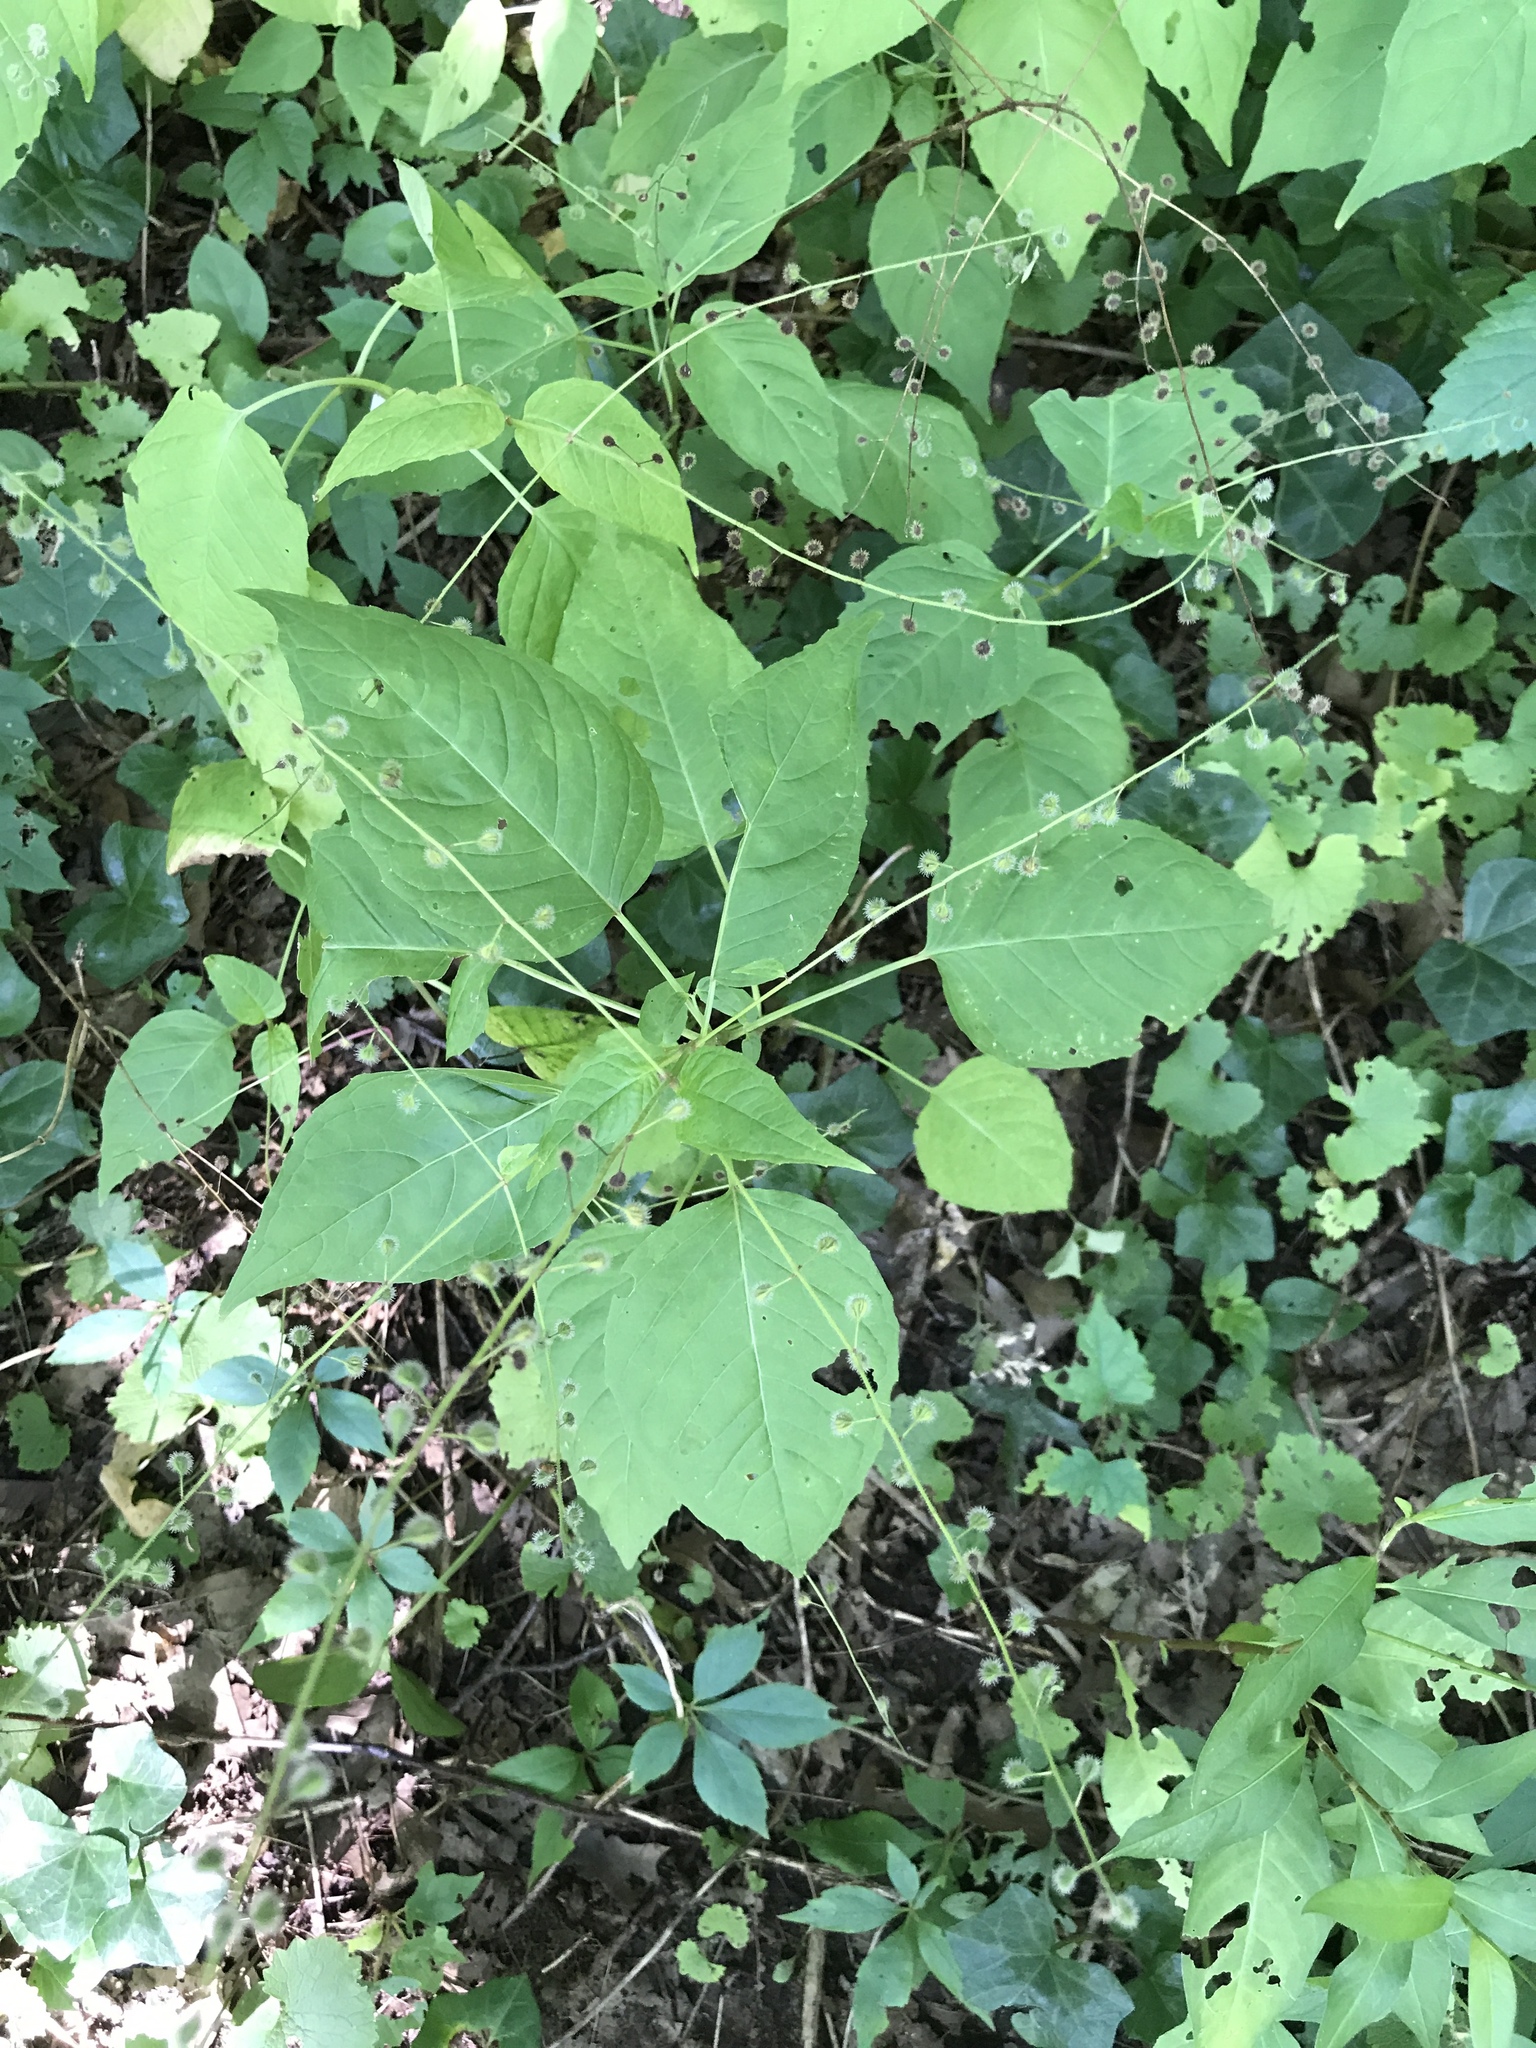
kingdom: Plantae
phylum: Tracheophyta
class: Magnoliopsida
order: Myrtales
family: Onagraceae
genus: Circaea
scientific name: Circaea canadensis
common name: Broad-leaved enchanter's nightshade
